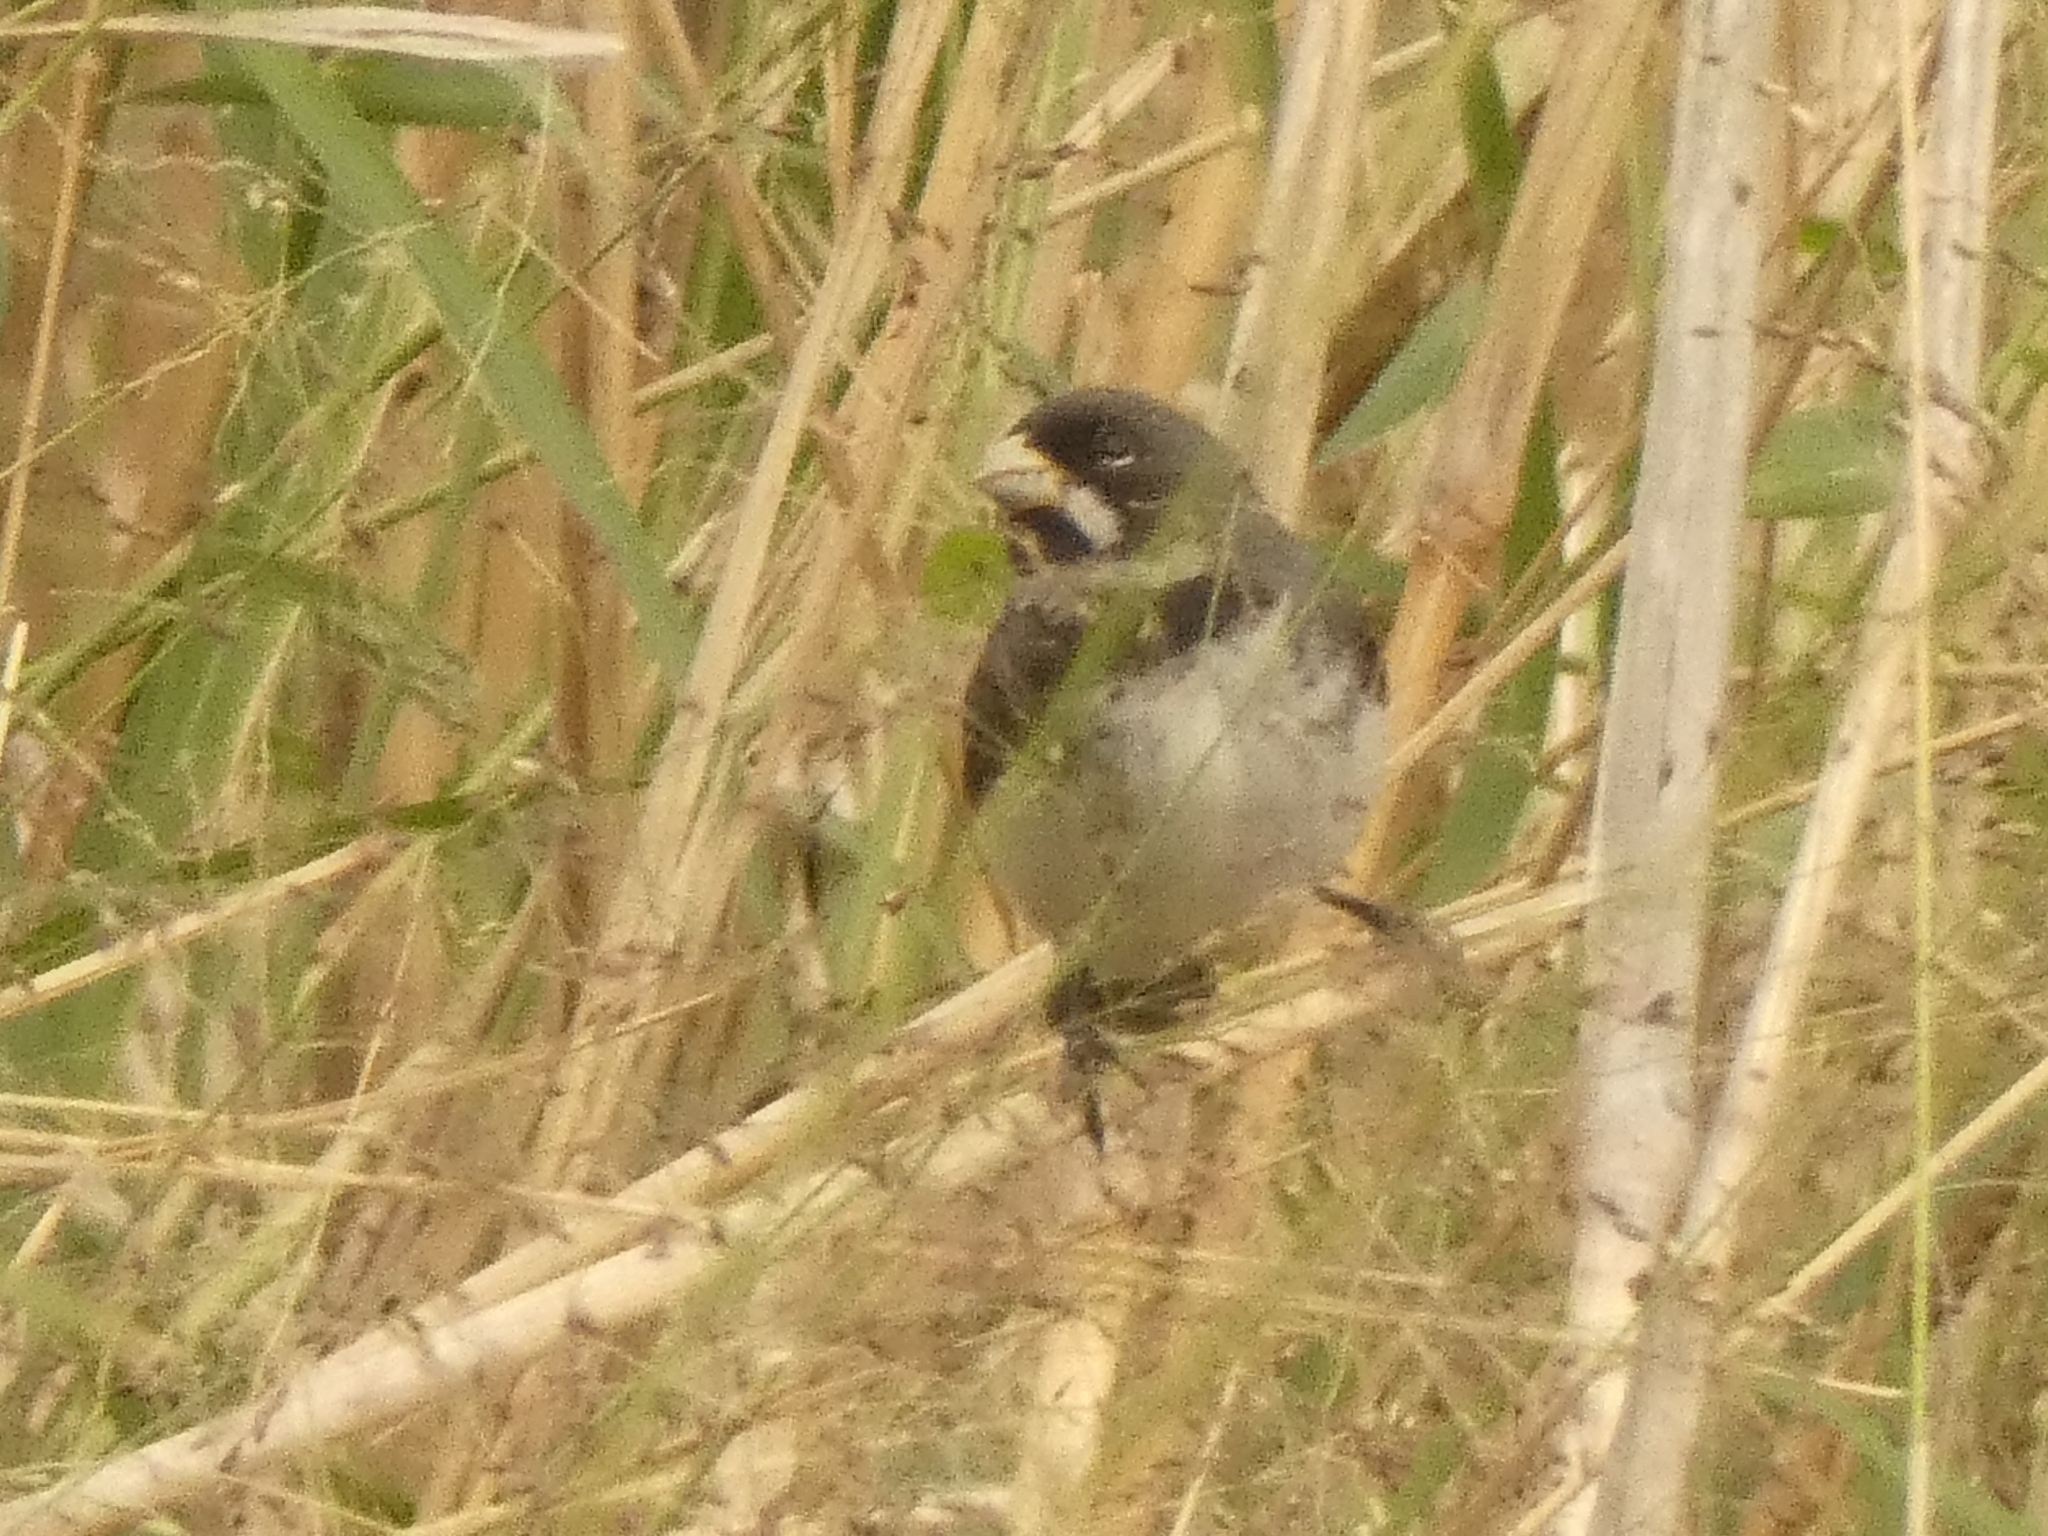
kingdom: Animalia
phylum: Chordata
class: Aves
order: Passeriformes
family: Thraupidae
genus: Sporophila
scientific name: Sporophila caerulescens
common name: Double-collared seedeater
